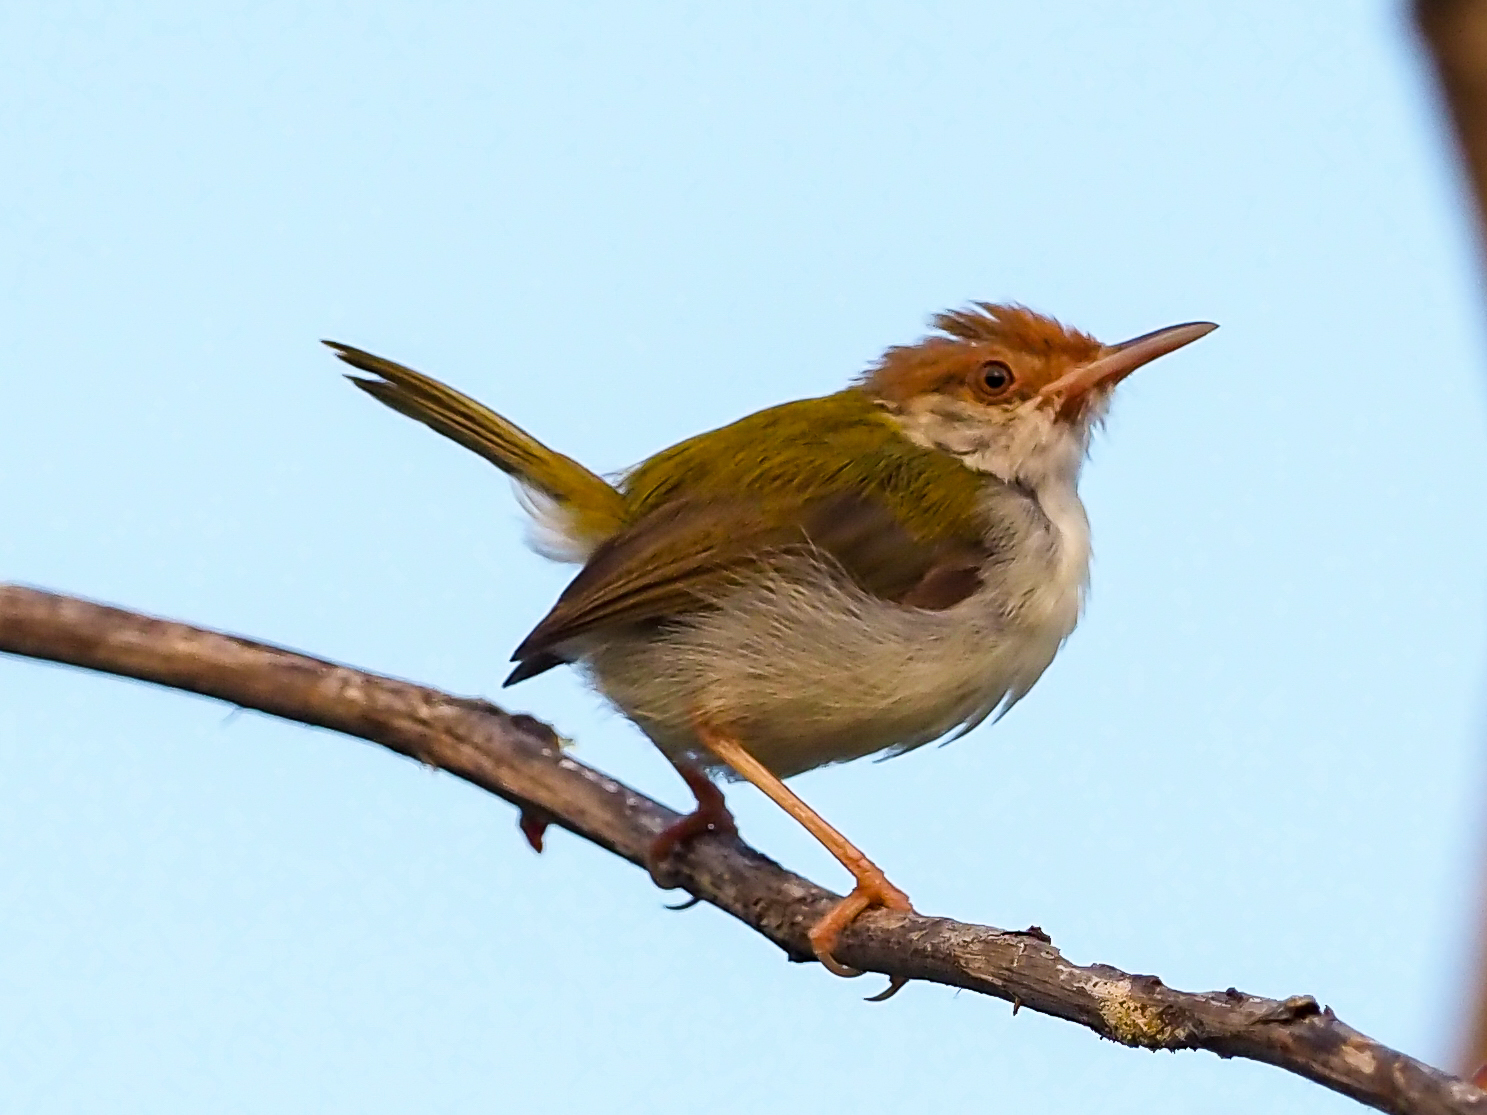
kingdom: Animalia
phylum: Chordata
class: Aves
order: Passeriformes
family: Cisticolidae
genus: Orthotomus
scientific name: Orthotomus sutorius
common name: Common tailorbird
